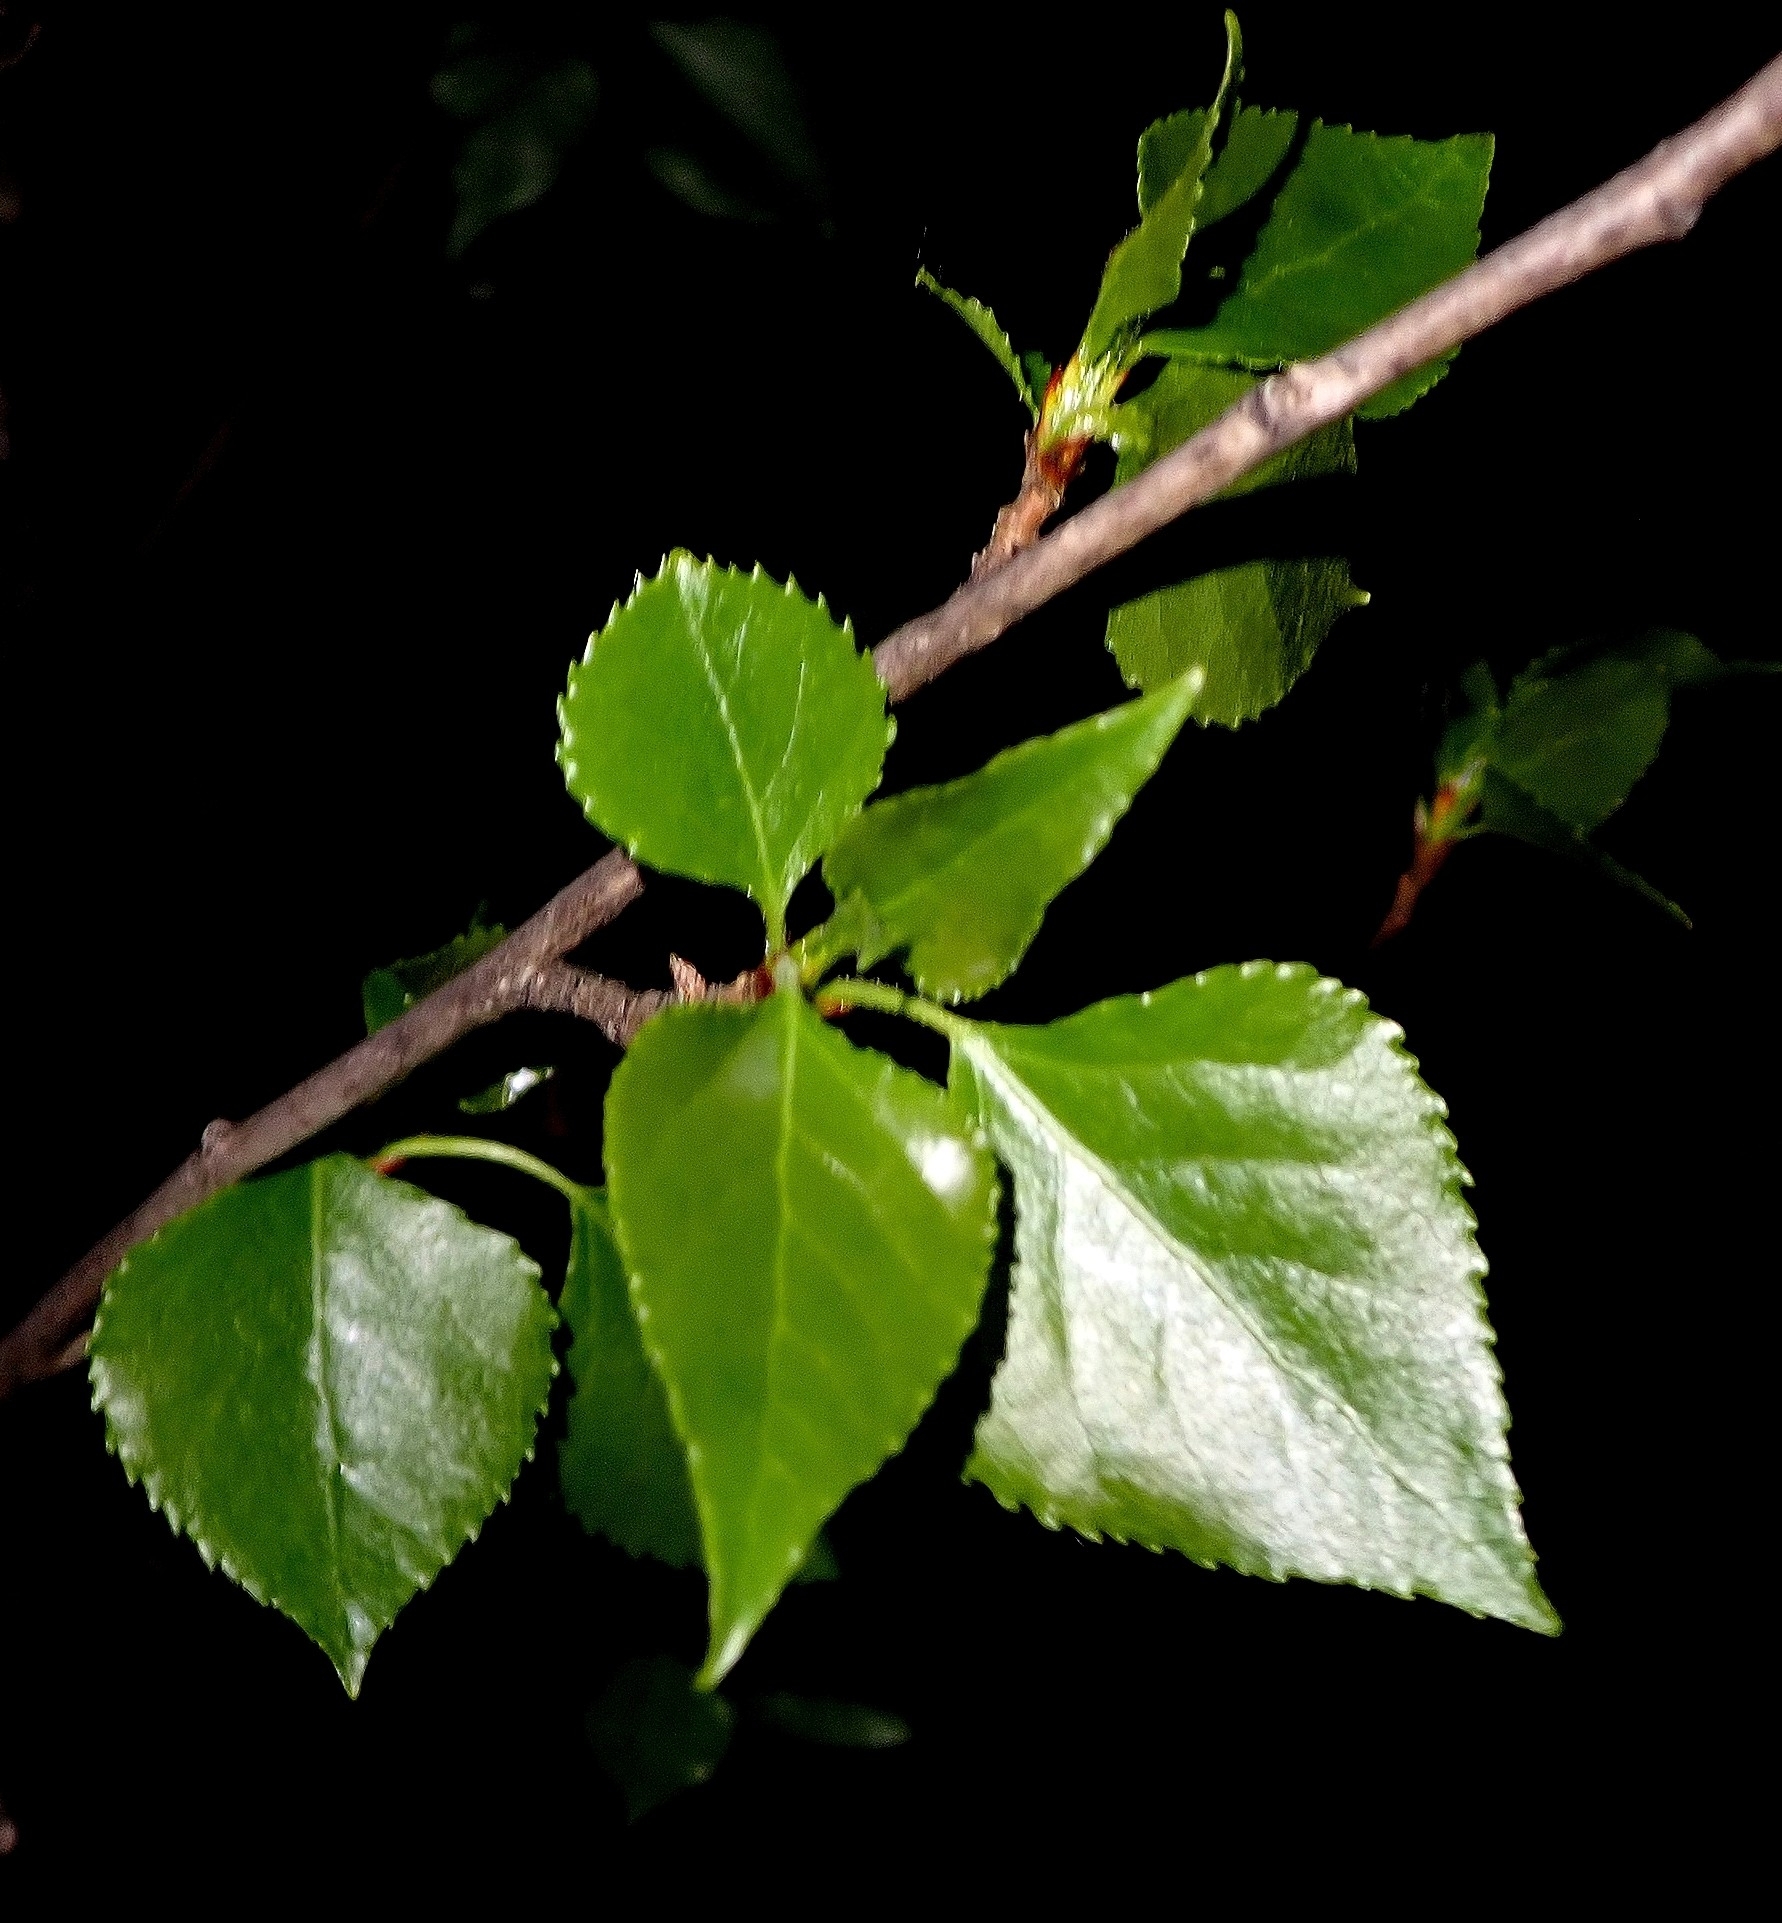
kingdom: Plantae
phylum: Tracheophyta
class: Magnoliopsida
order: Malpighiales
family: Salicaceae
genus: Populus
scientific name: Populus nigra
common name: Black poplar
